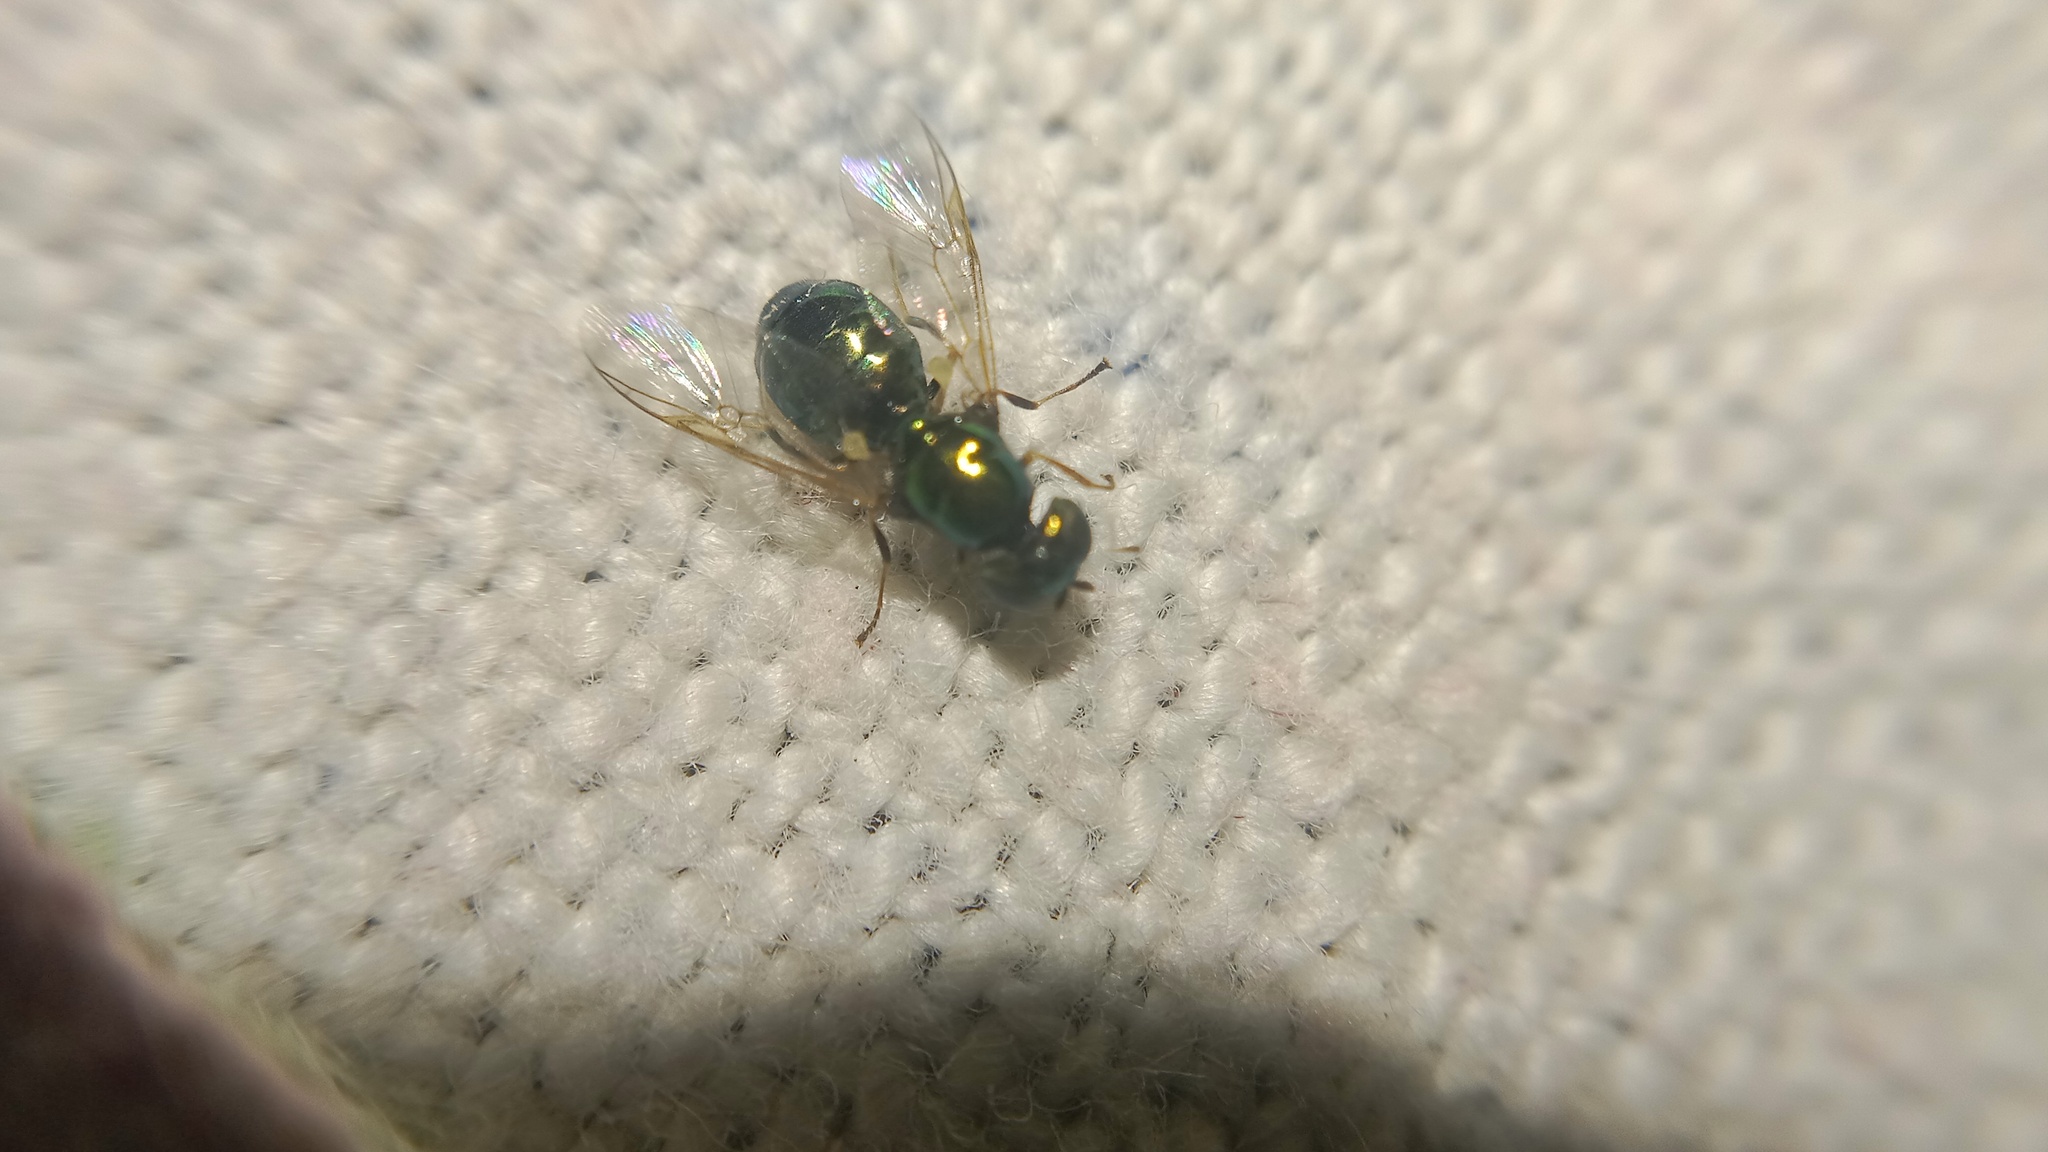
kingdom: Animalia
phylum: Arthropoda
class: Insecta
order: Diptera
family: Stratiomyidae
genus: Microchrysa
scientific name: Microchrysa polita
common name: Black-horned gem
